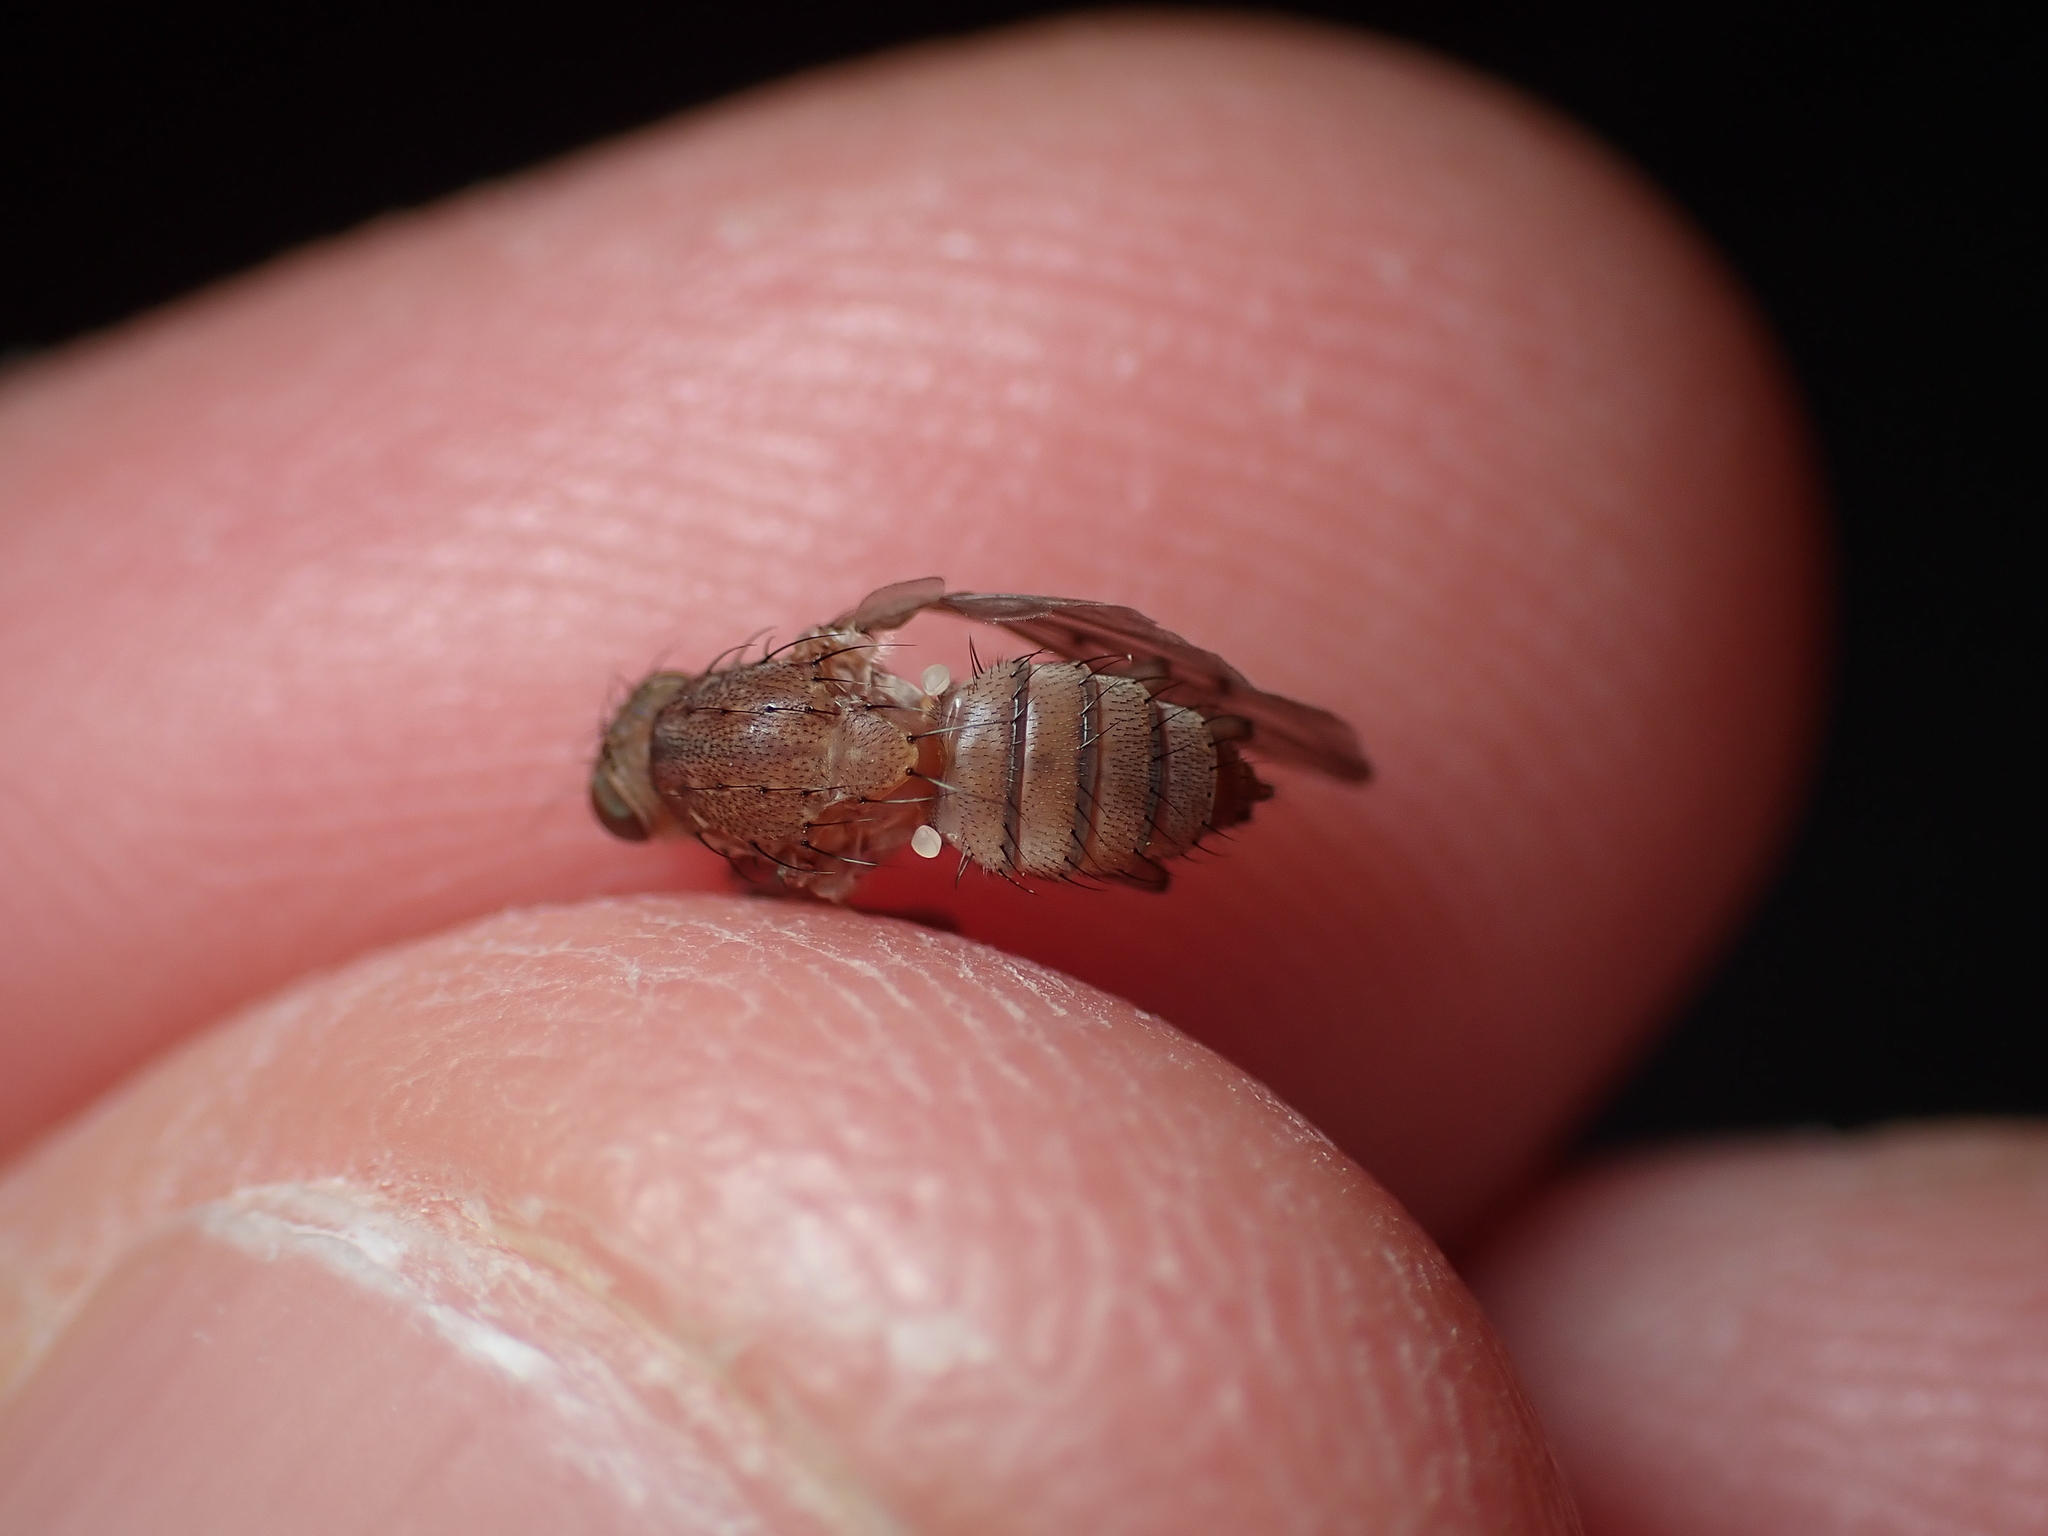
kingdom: Animalia
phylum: Arthropoda
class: Insecta
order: Diptera
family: Heleomyzidae
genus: Suillia
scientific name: Suillia affinis
